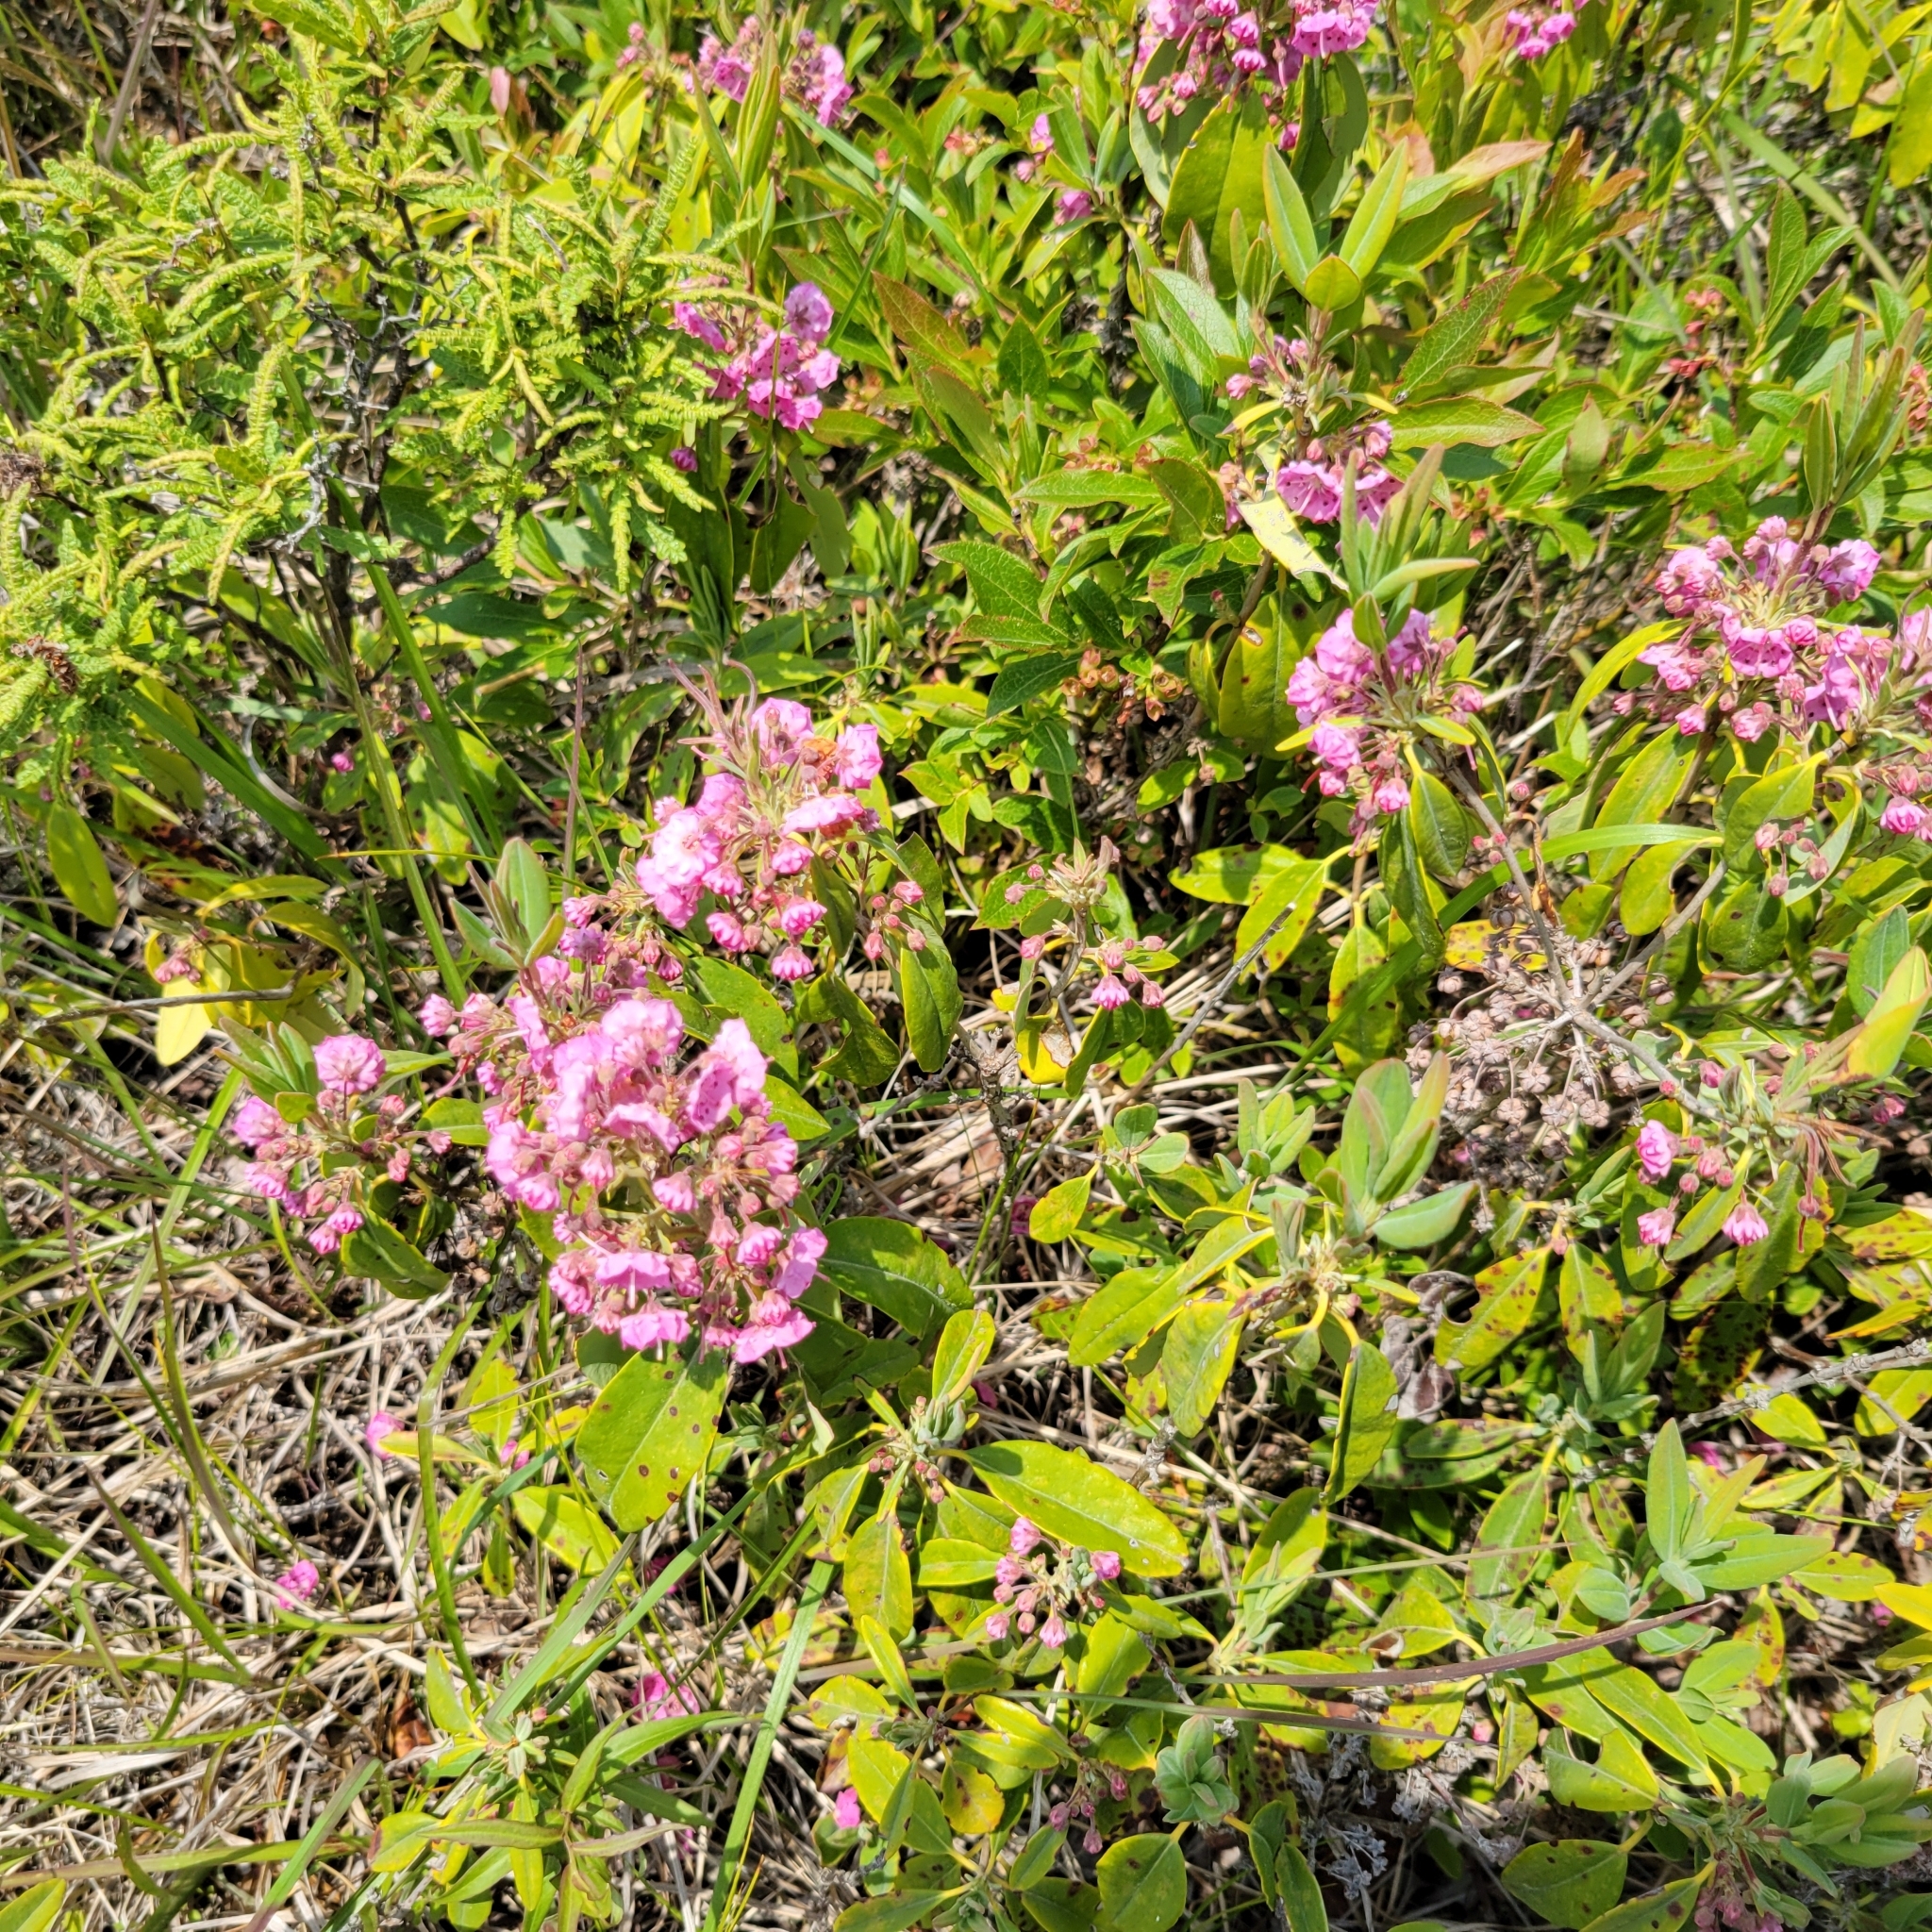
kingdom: Plantae
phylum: Tracheophyta
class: Magnoliopsida
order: Ericales
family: Ericaceae
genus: Kalmia
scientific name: Kalmia angustifolia
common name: Sheep-laurel
